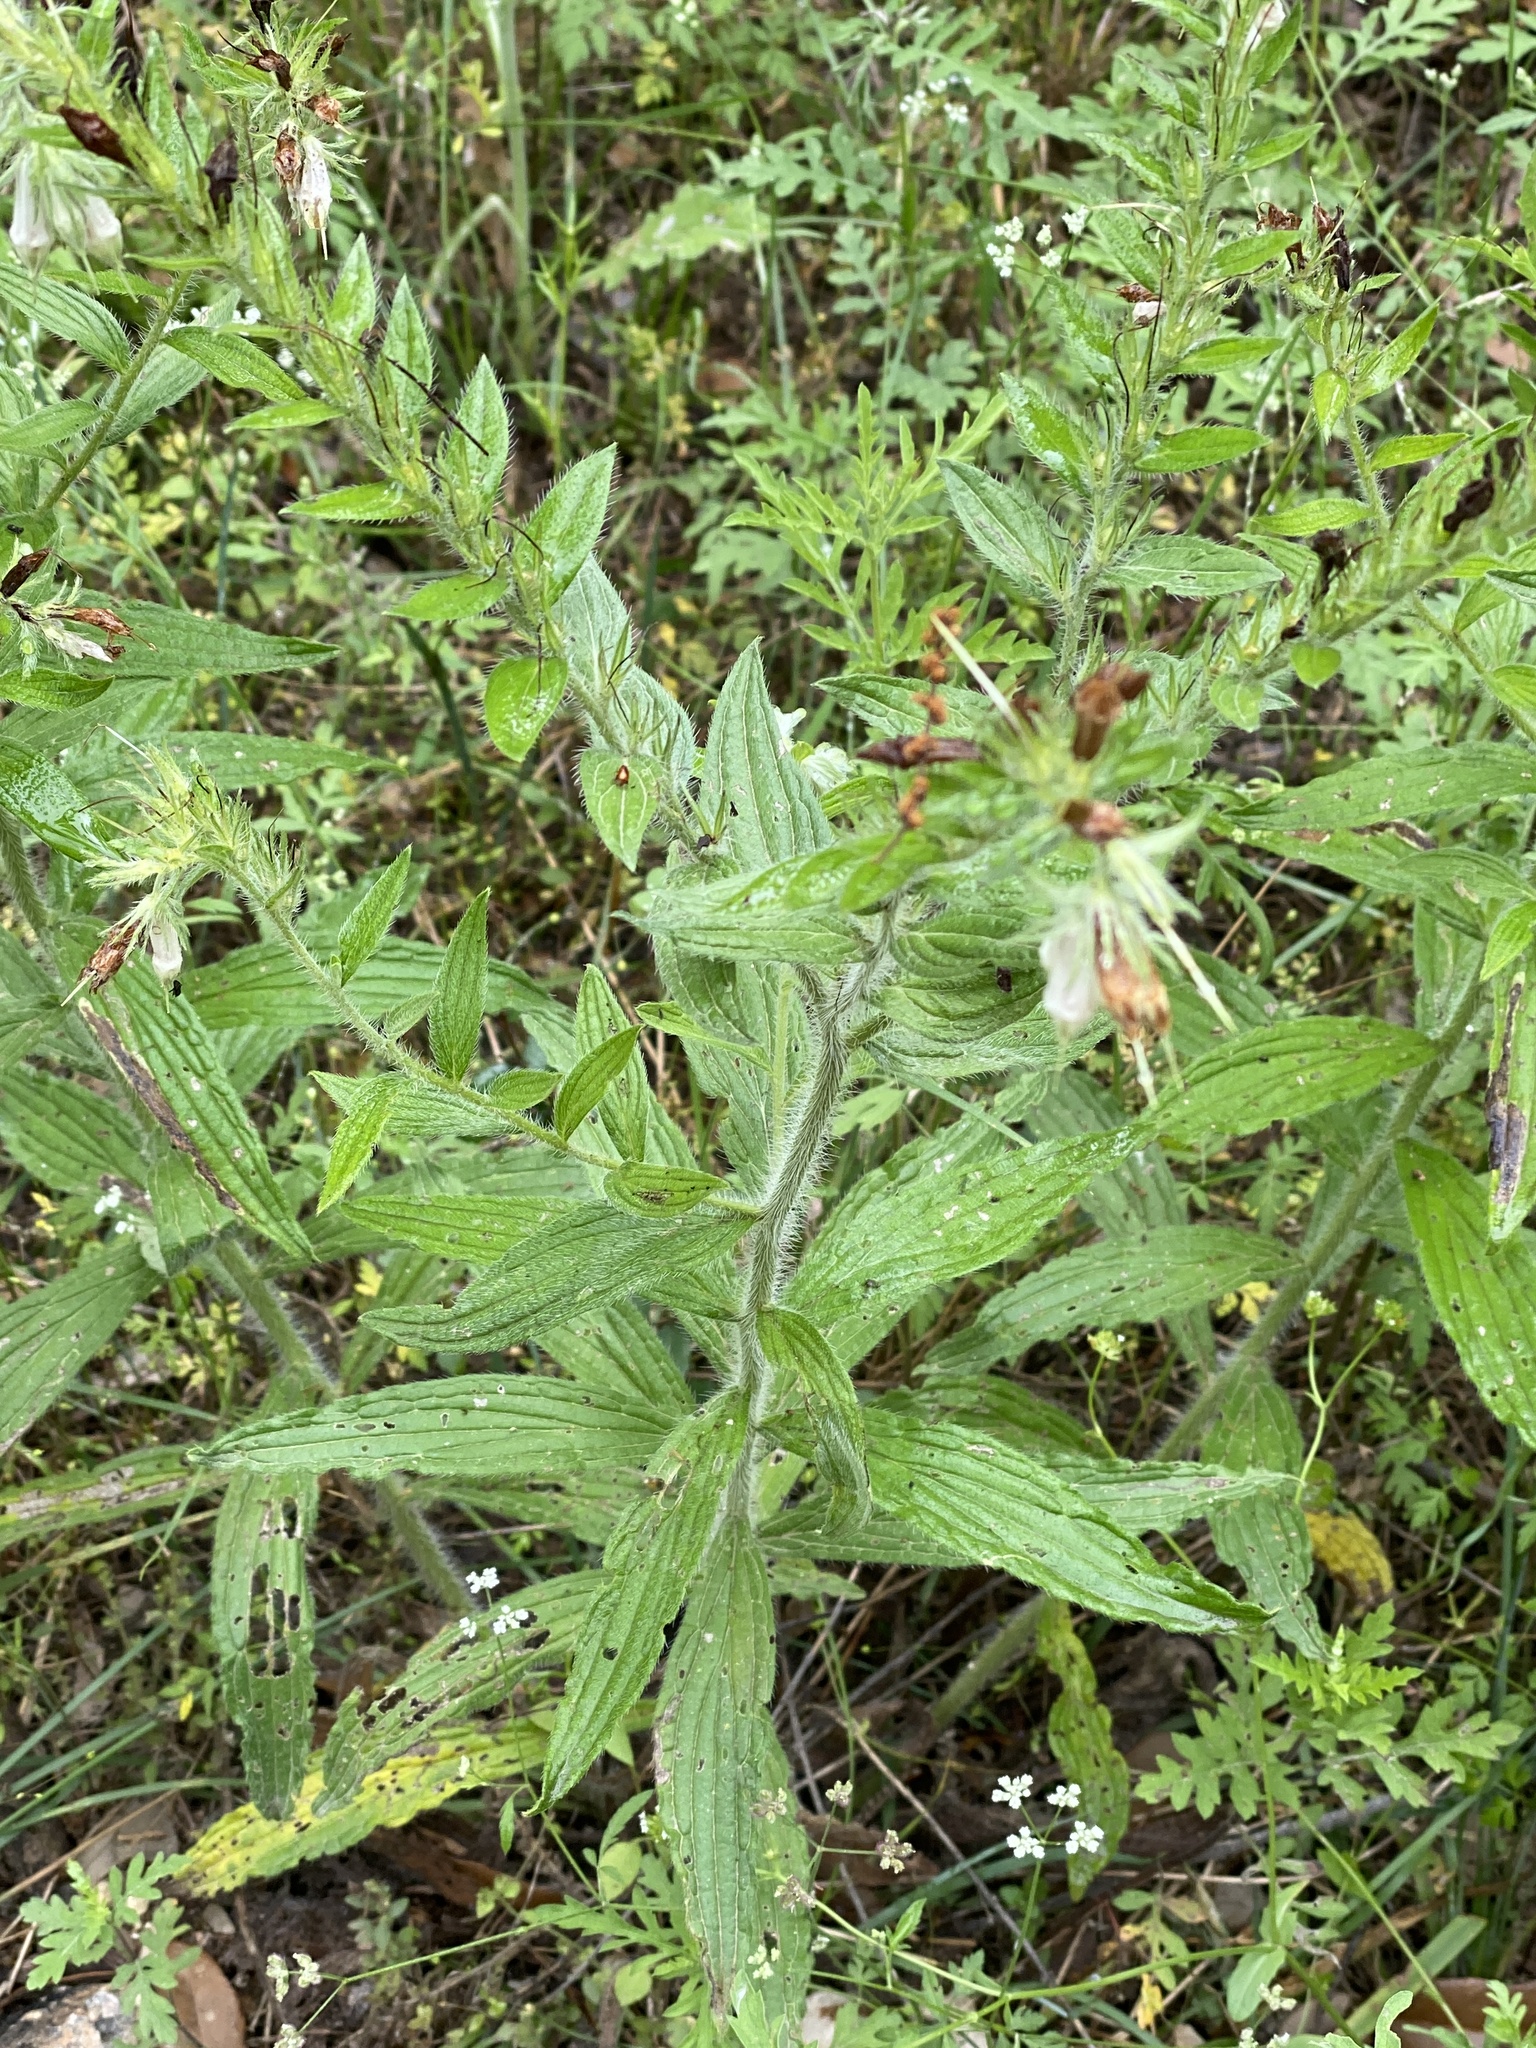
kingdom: Plantae
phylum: Tracheophyta
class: Magnoliopsida
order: Boraginales
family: Boraginaceae
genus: Lithospermum
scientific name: Lithospermum caroliniense
